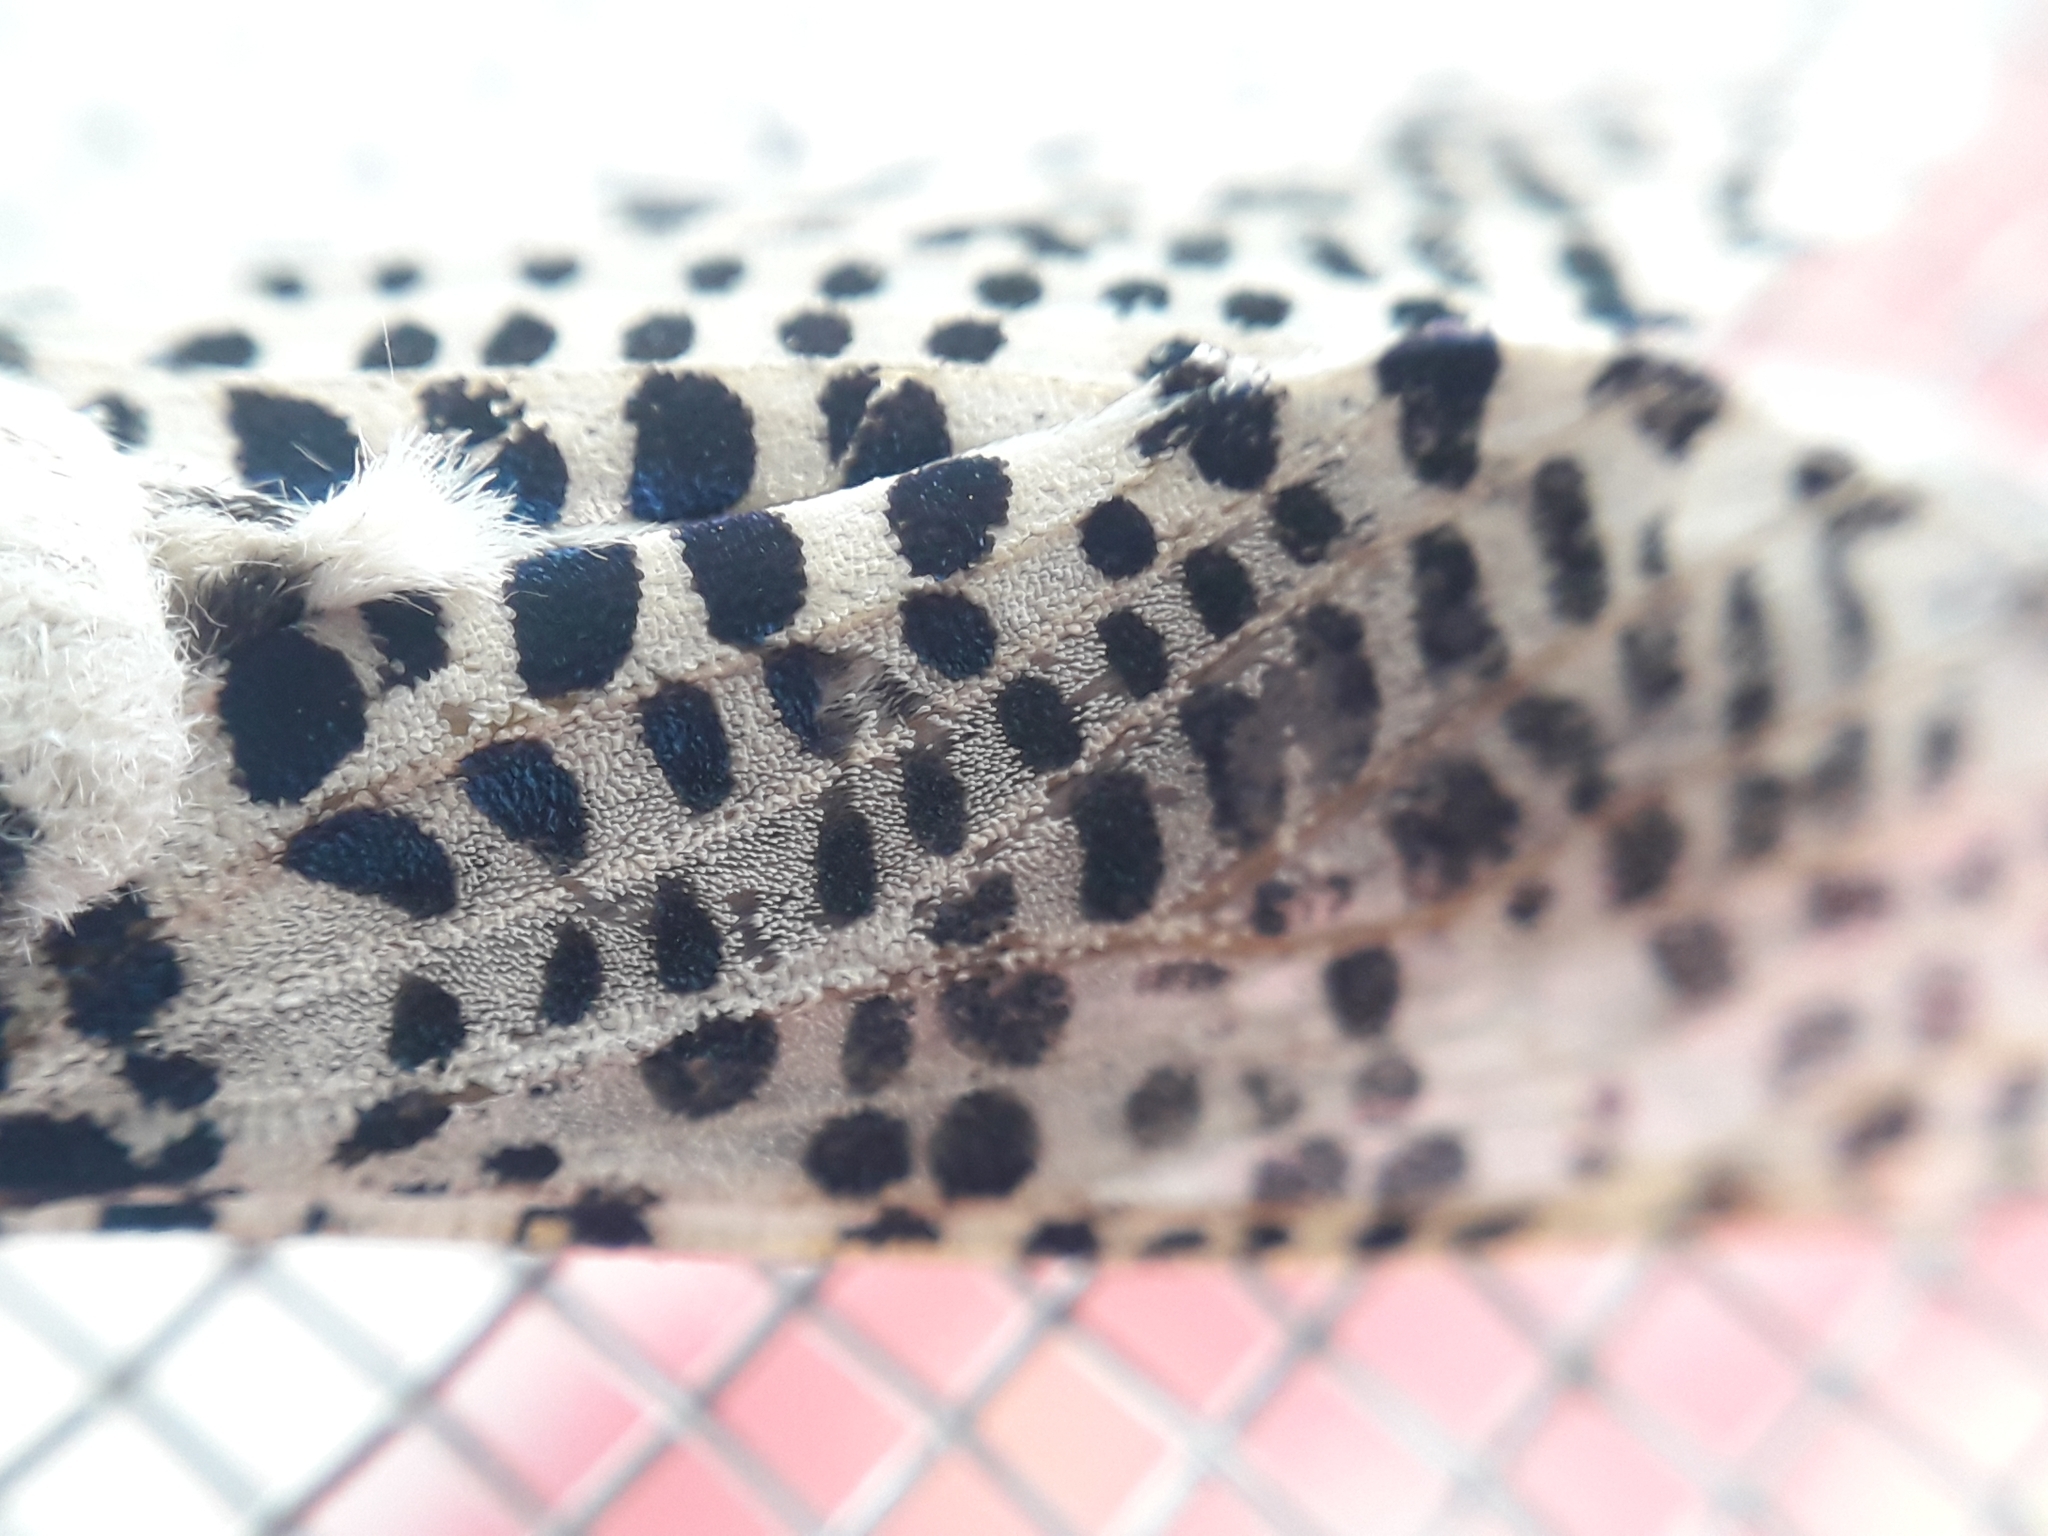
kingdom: Animalia
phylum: Arthropoda
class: Insecta
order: Lepidoptera
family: Cossidae
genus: Zeuzera
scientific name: Zeuzera pyrina
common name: Leopard moth
